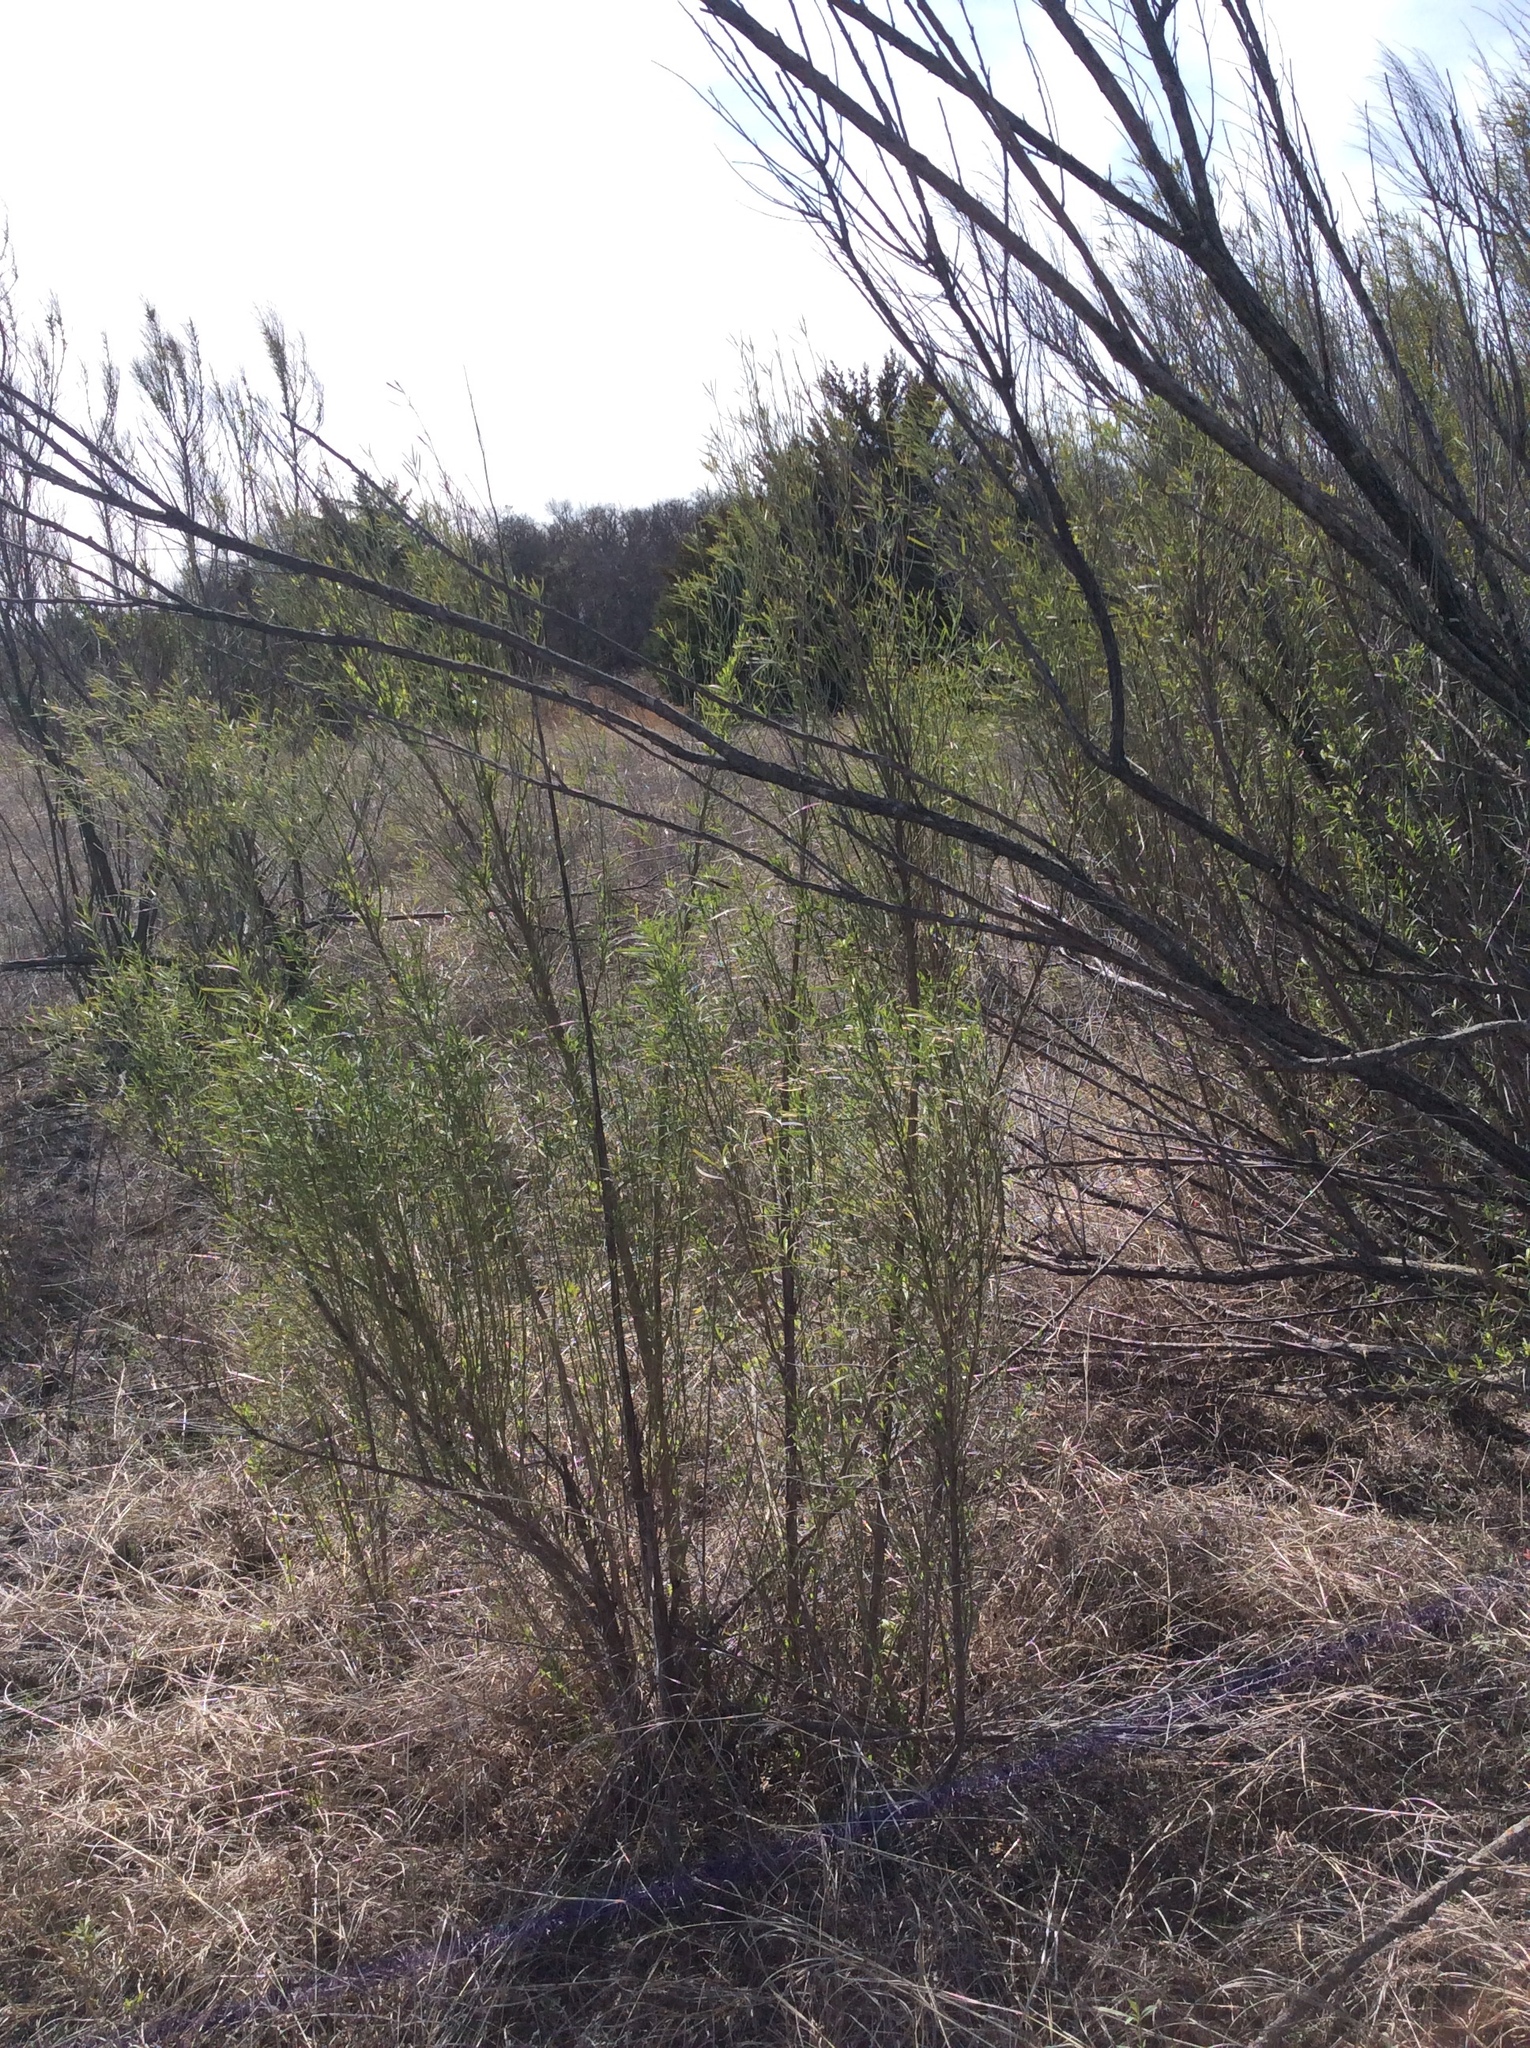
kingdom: Plantae
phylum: Tracheophyta
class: Magnoliopsida
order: Asterales
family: Asteraceae
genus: Baccharis
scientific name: Baccharis neglecta
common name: Roosevelt-weed
